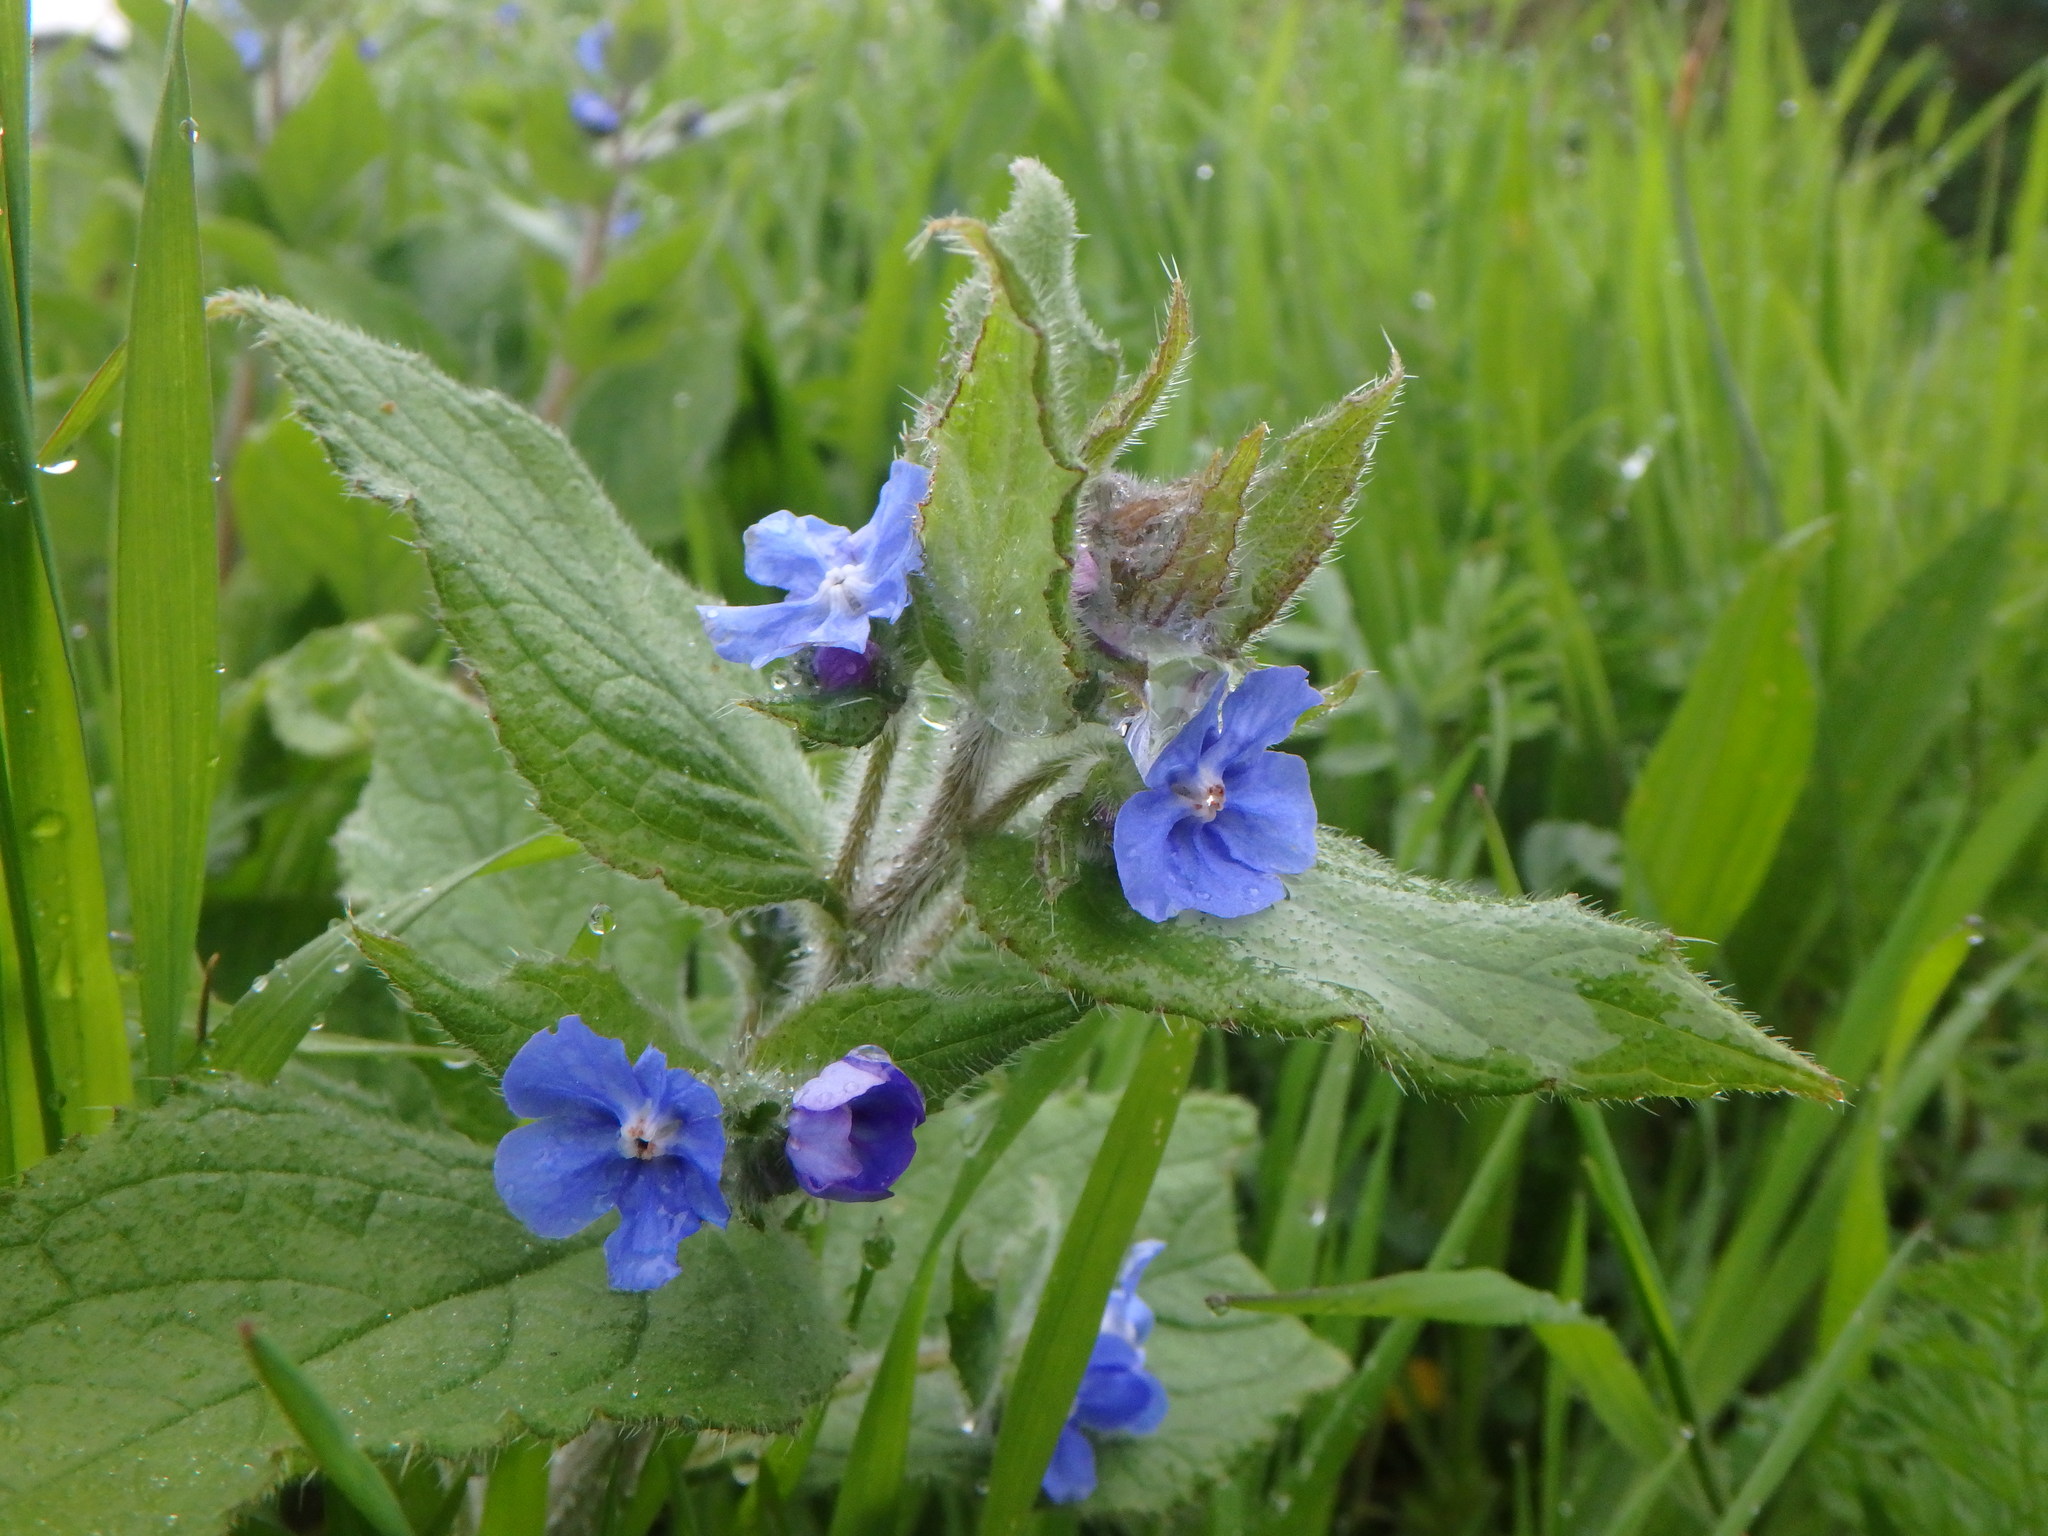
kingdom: Plantae
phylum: Tracheophyta
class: Magnoliopsida
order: Boraginales
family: Boraginaceae
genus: Pentaglottis
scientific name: Pentaglottis sempervirens
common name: Green alkanet
